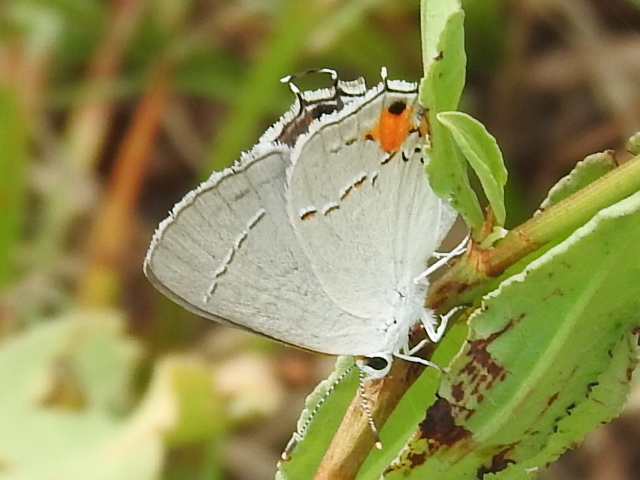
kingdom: Animalia
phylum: Arthropoda
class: Insecta
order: Lepidoptera
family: Lycaenidae
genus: Strymon
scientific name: Strymon melinus
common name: Gray hairstreak
